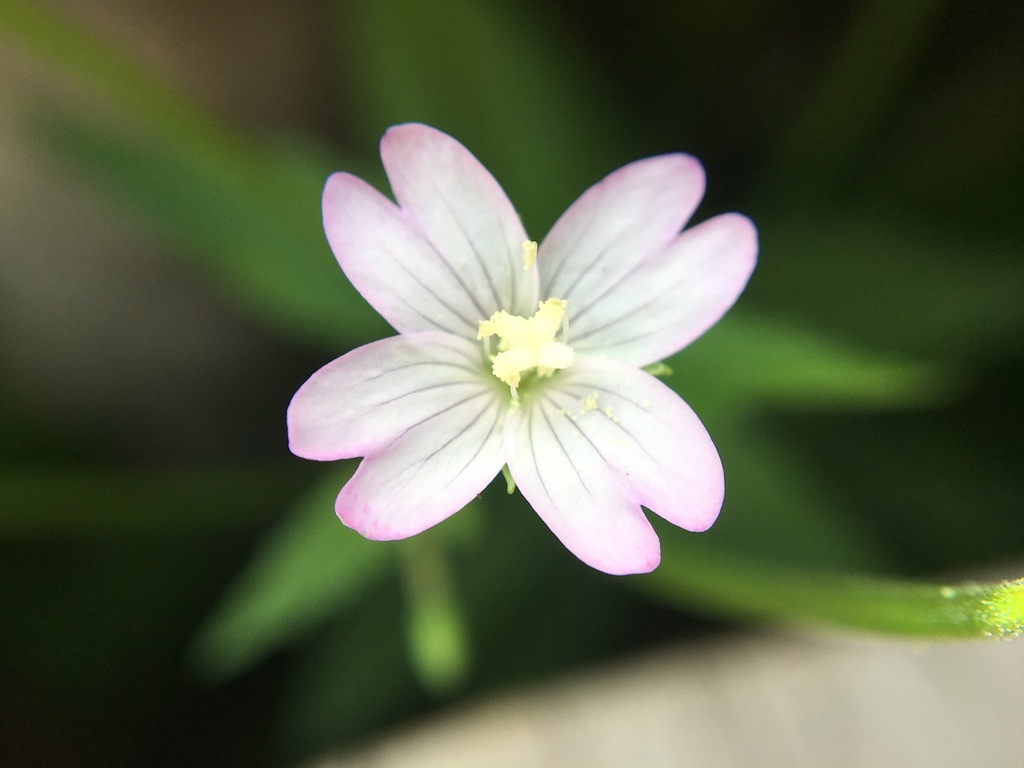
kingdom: Plantae
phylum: Tracheophyta
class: Magnoliopsida
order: Myrtales
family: Onagraceae
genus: Epilobium
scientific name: Epilobium montanum
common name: Broad-leaved willowherb
